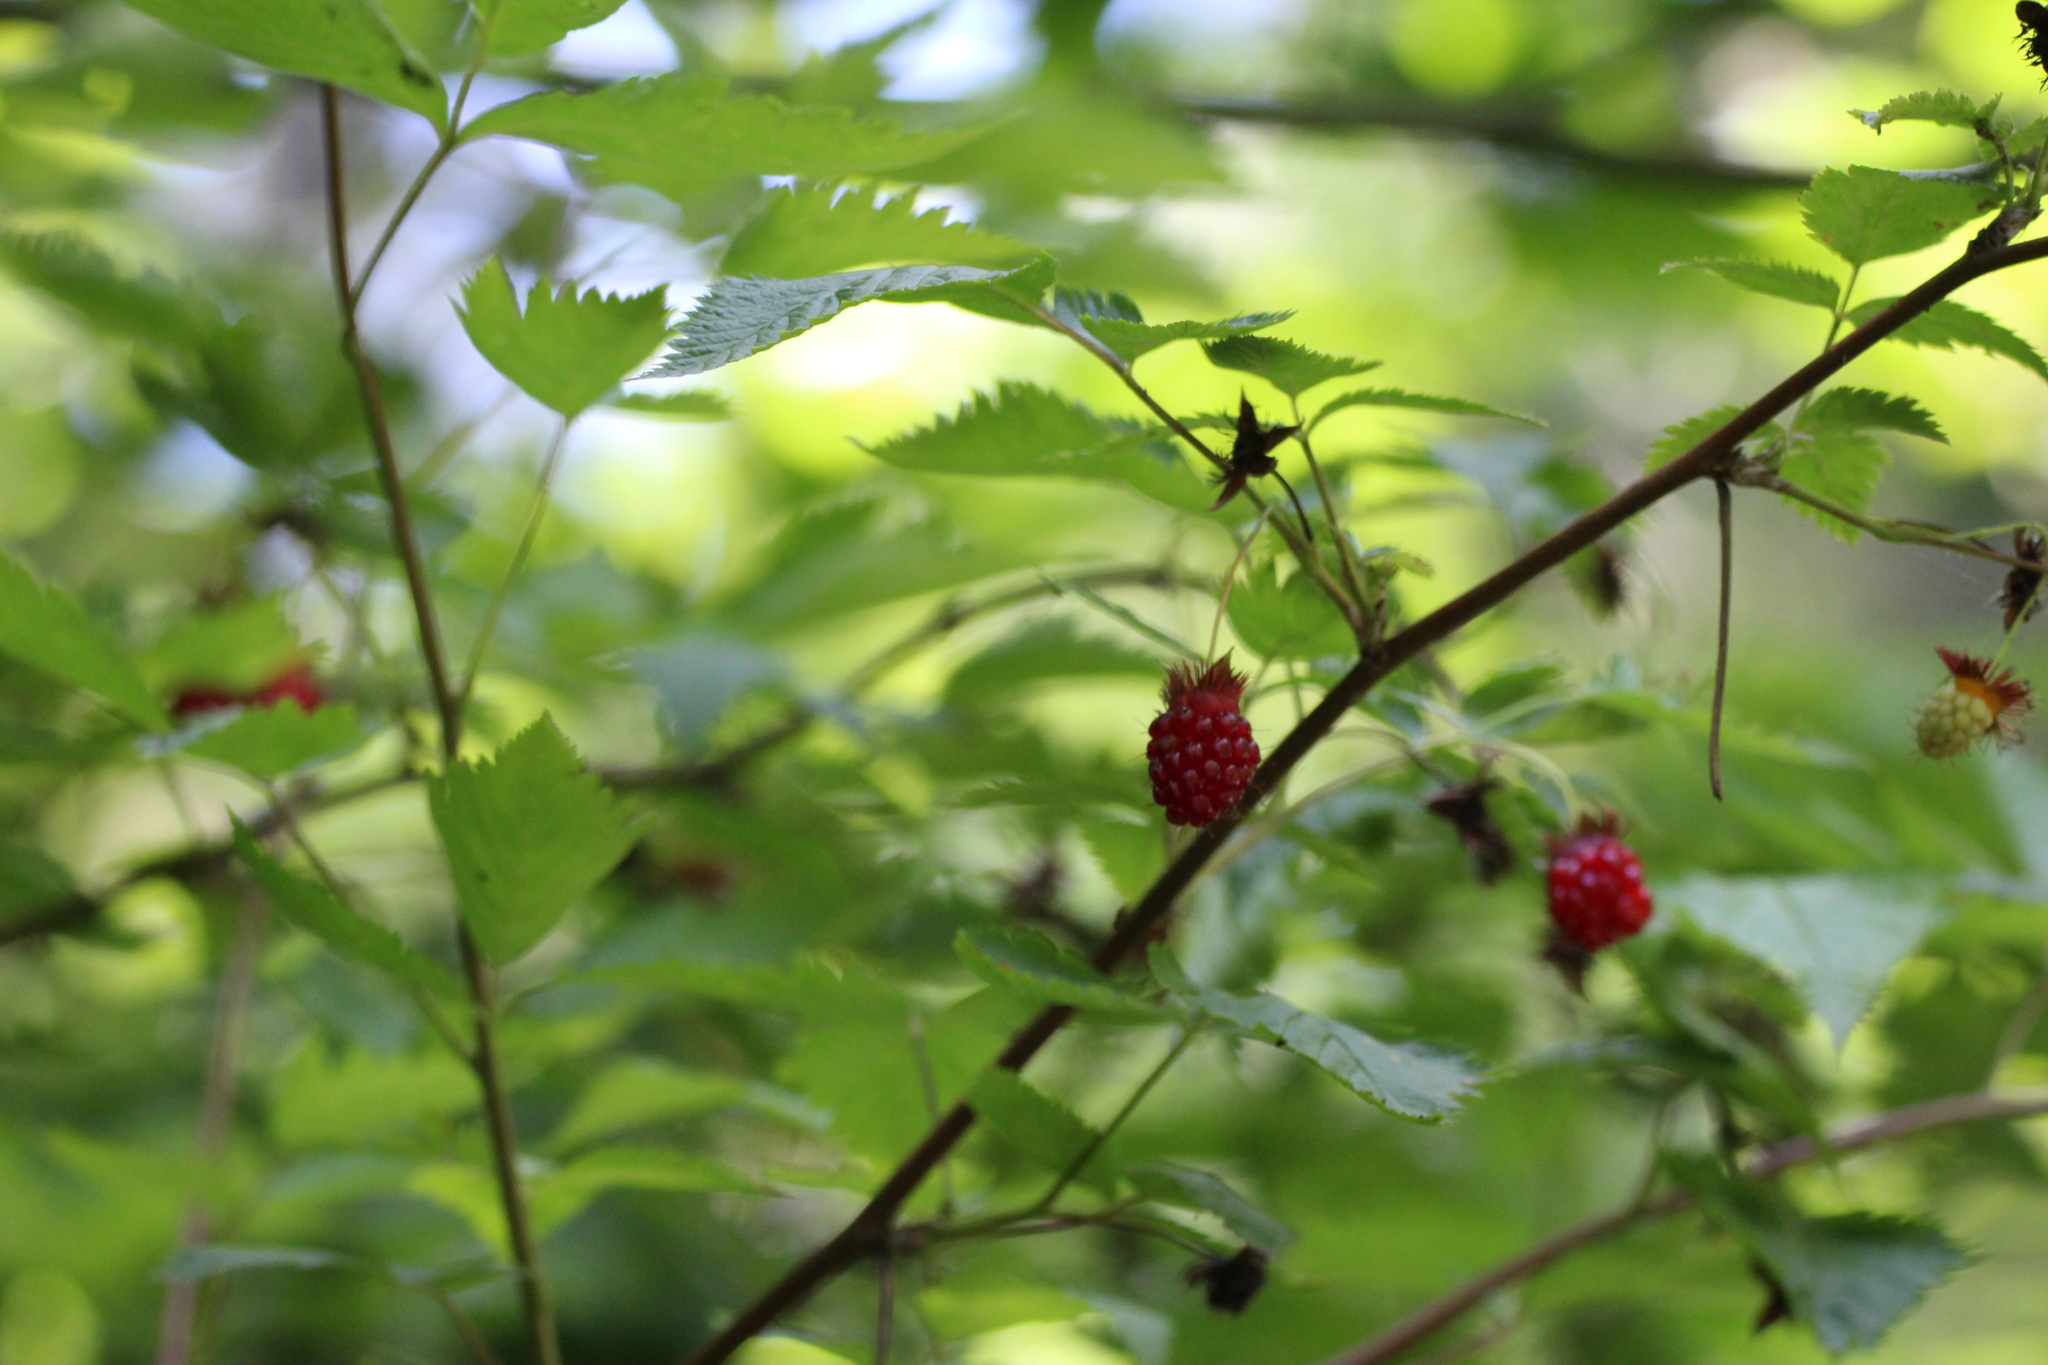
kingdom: Plantae
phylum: Tracheophyta
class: Magnoliopsida
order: Rosales
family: Rosaceae
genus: Rubus
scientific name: Rubus spectabilis
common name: Salmonberry
